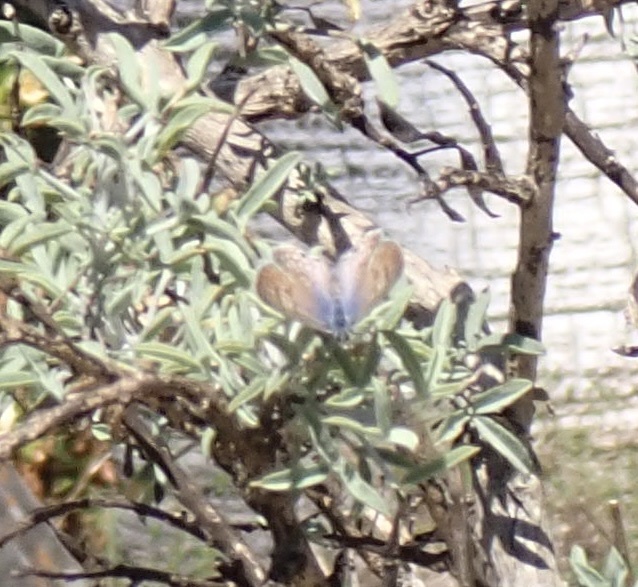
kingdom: Animalia
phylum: Arthropoda
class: Insecta
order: Lepidoptera
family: Lycaenidae
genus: Leptotes
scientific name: Leptotes marina
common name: Marine blue
